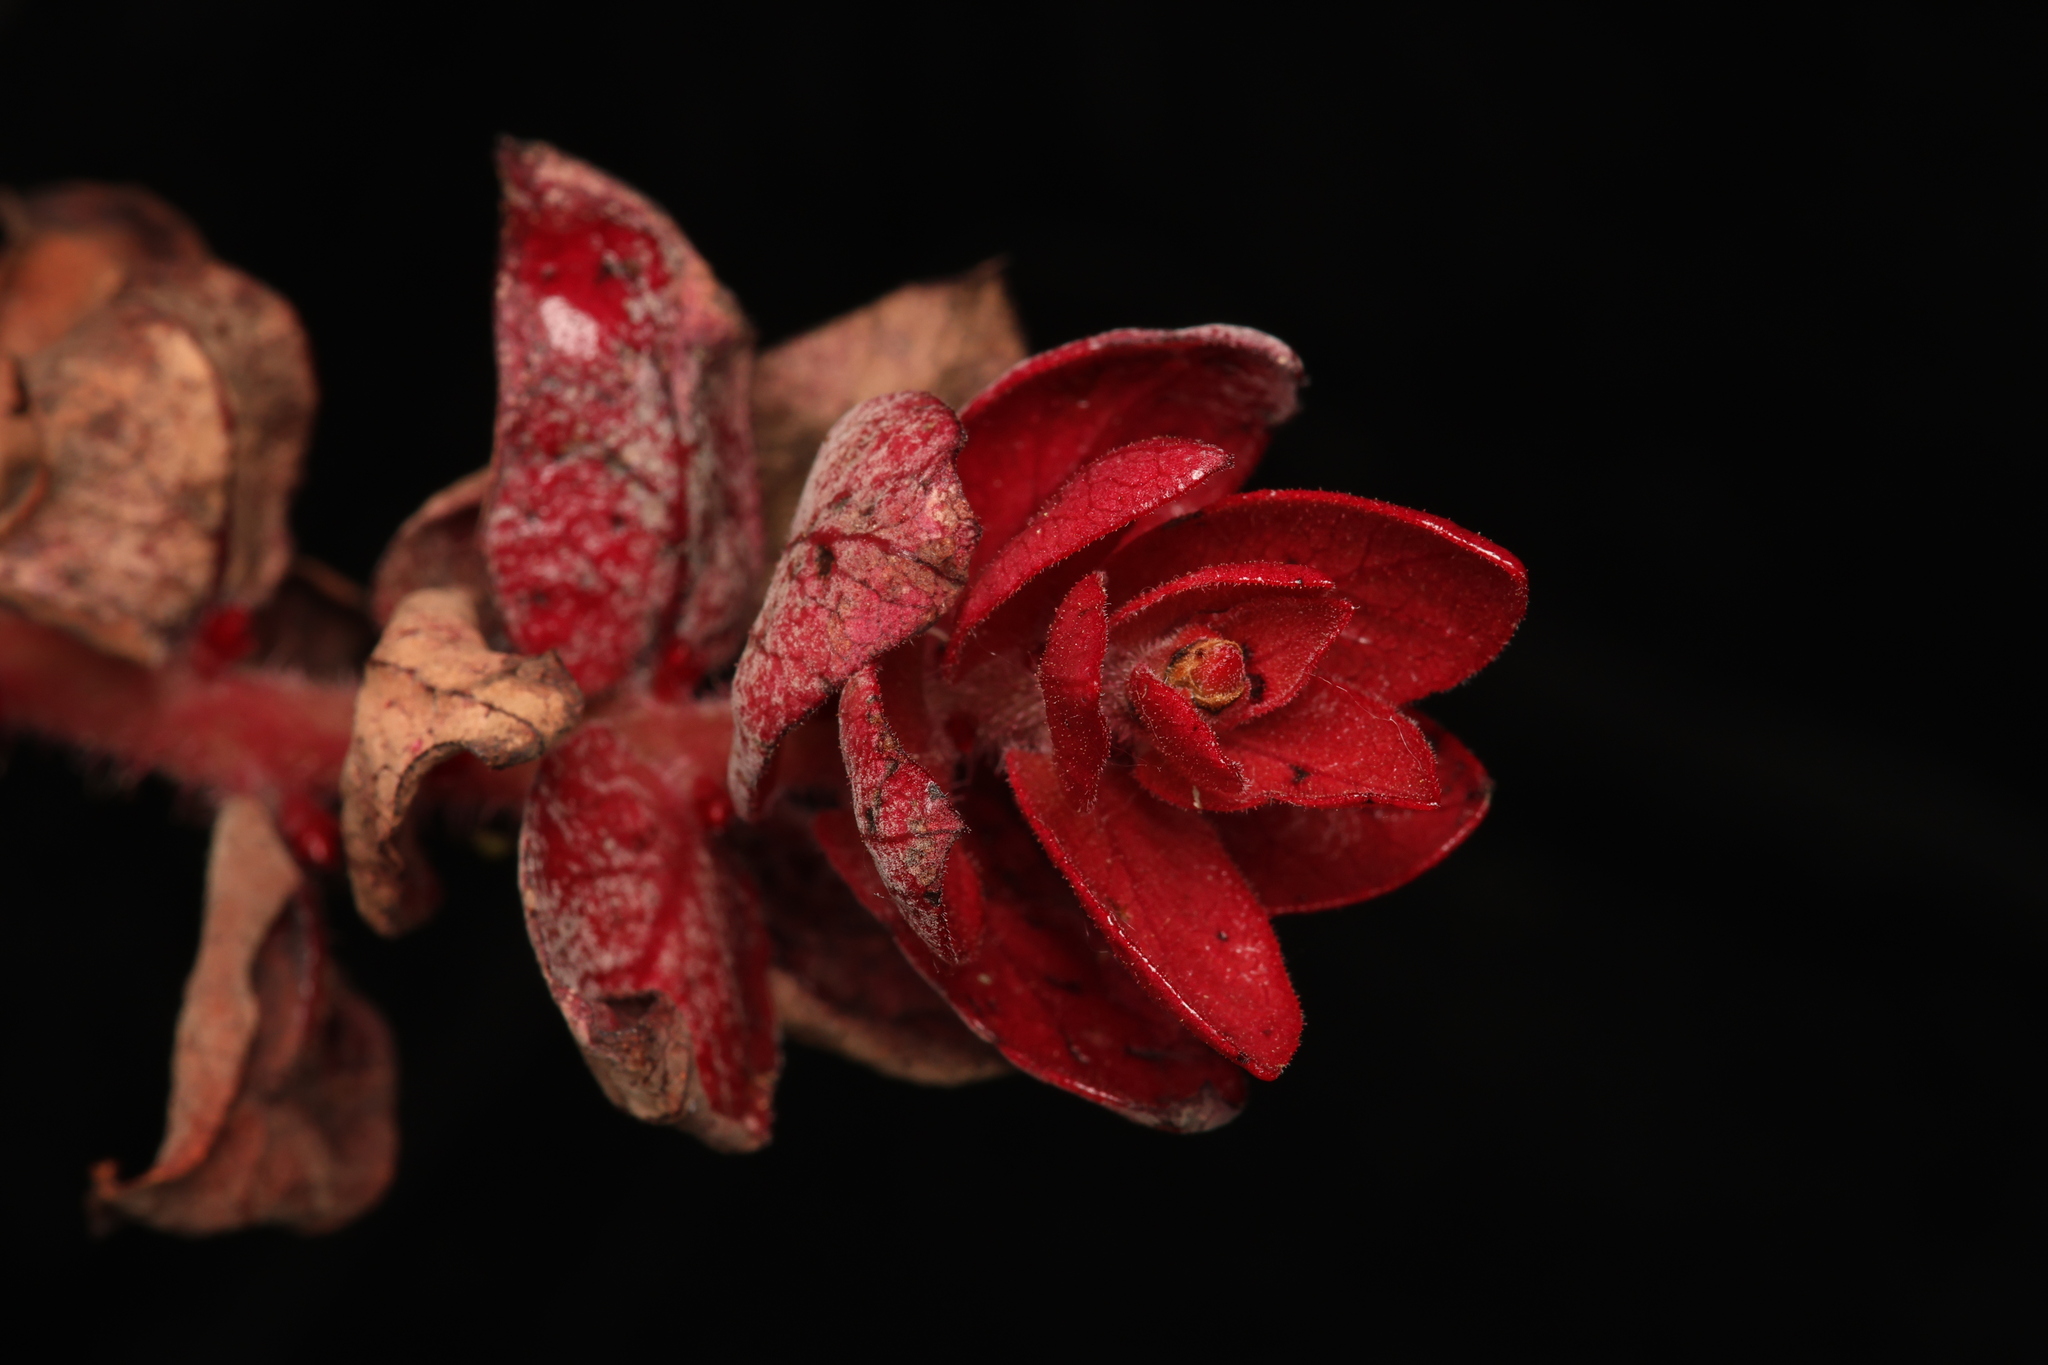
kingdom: Plantae
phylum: Tracheophyta
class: Magnoliopsida
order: Ericales
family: Ericaceae
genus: Arctostaphylos
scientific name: Arctostaphylos refugioensis
